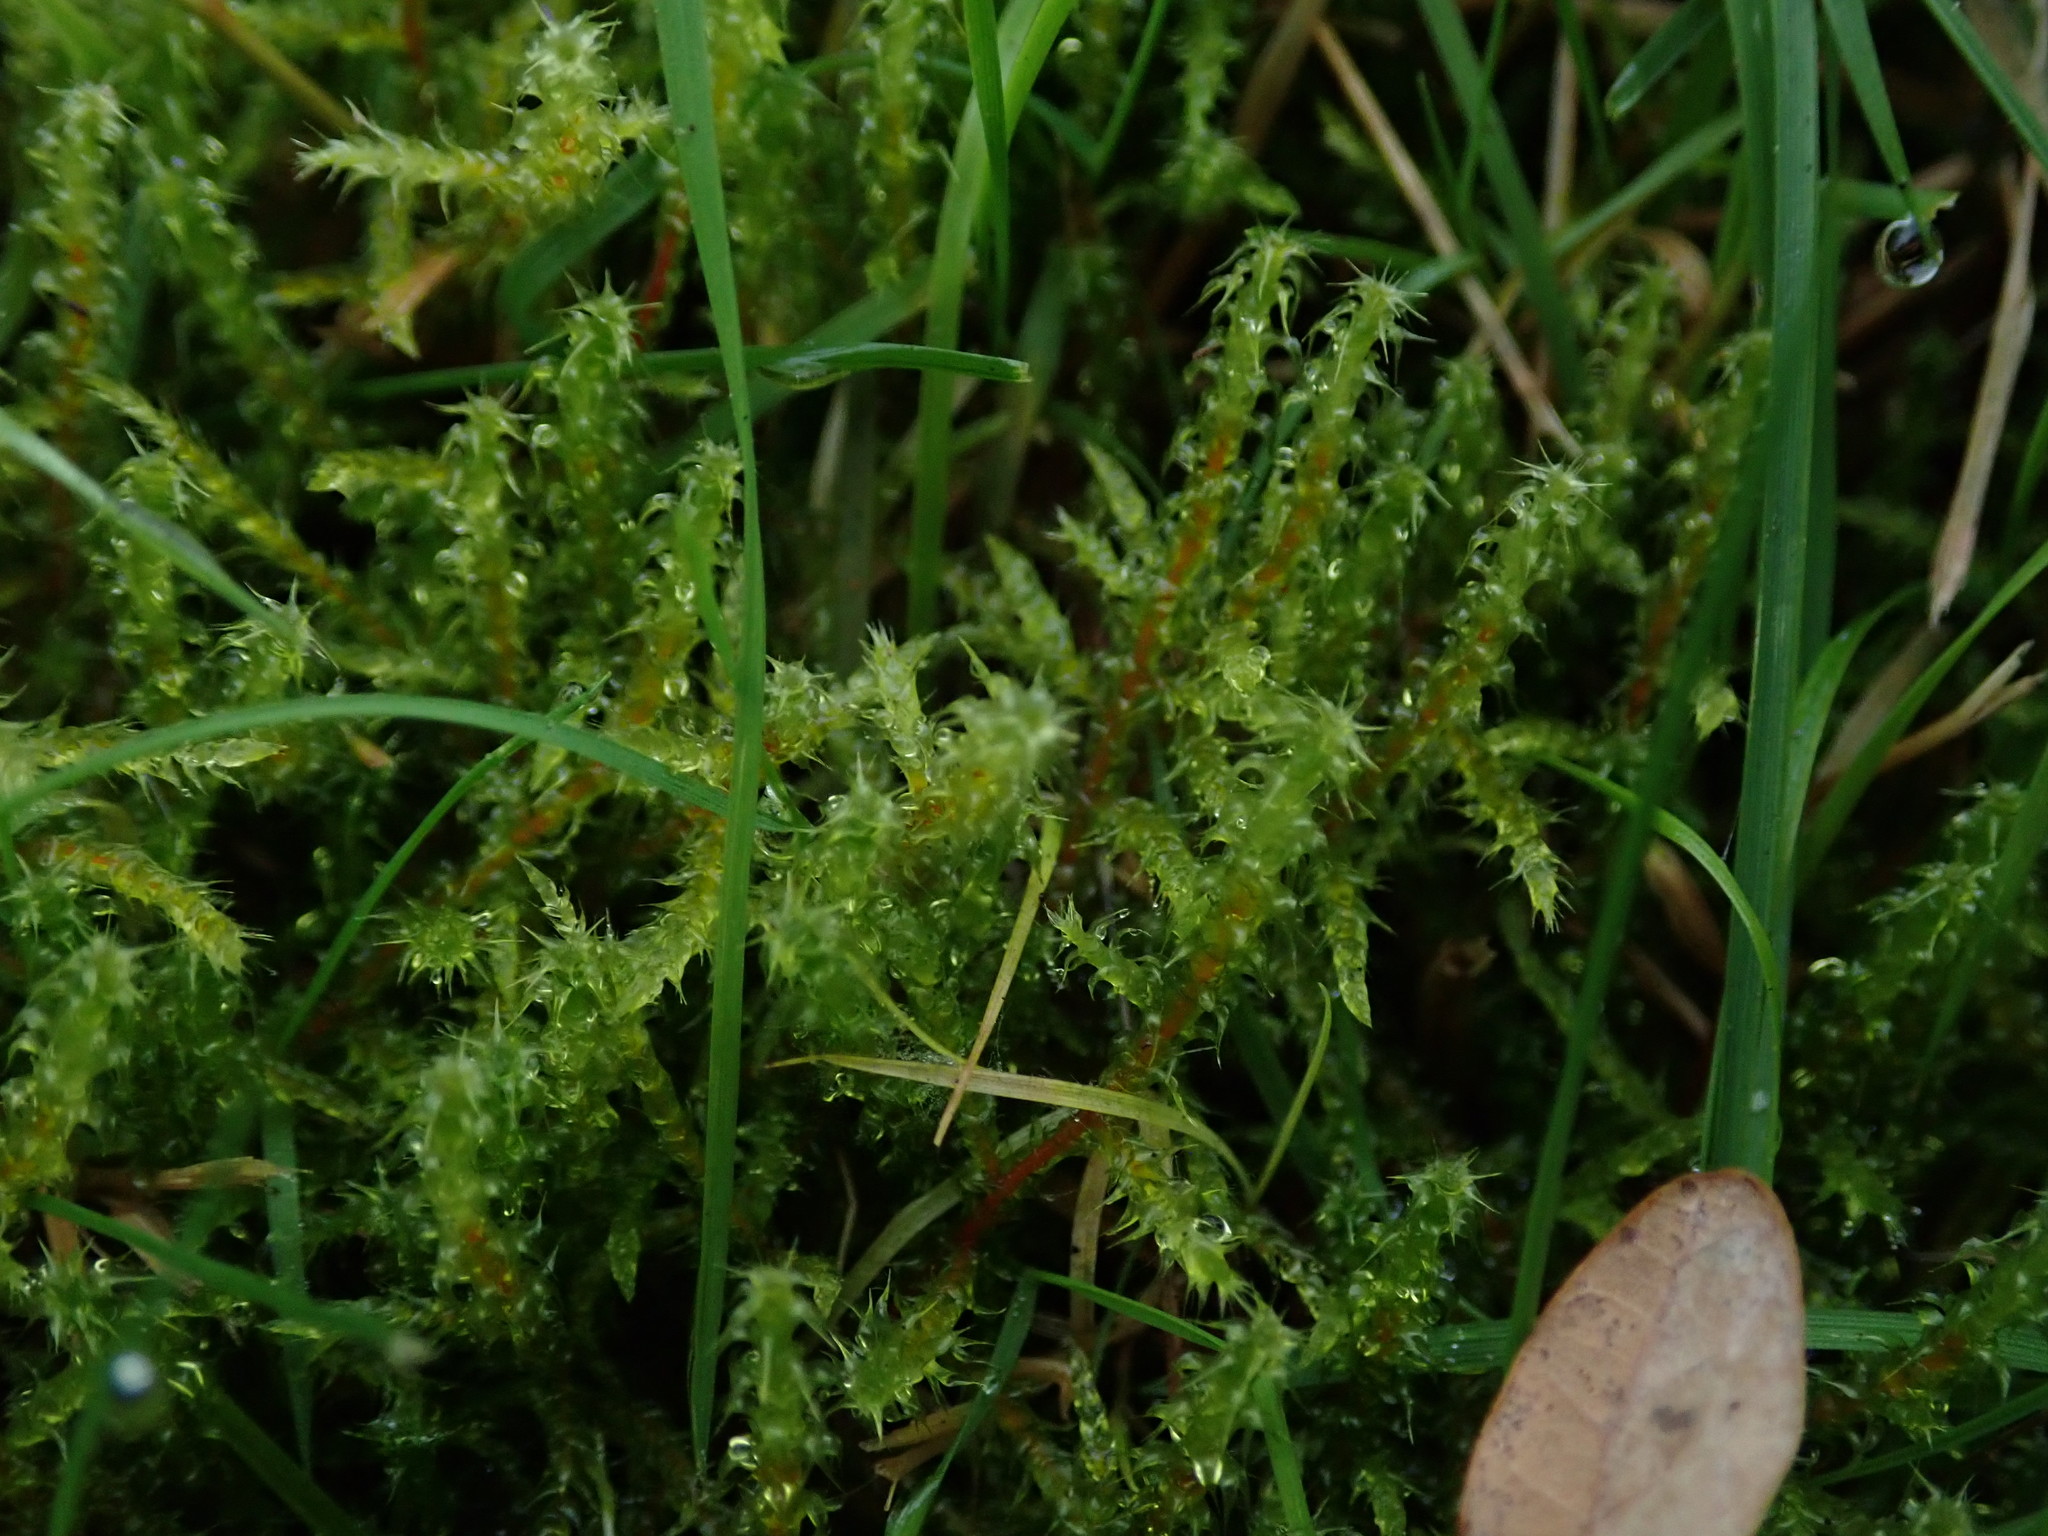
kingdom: Plantae
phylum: Bryophyta
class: Bryopsida
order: Hypnales
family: Hylocomiaceae
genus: Rhytidiadelphus
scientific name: Rhytidiadelphus squarrosus
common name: Springy turf-moss
